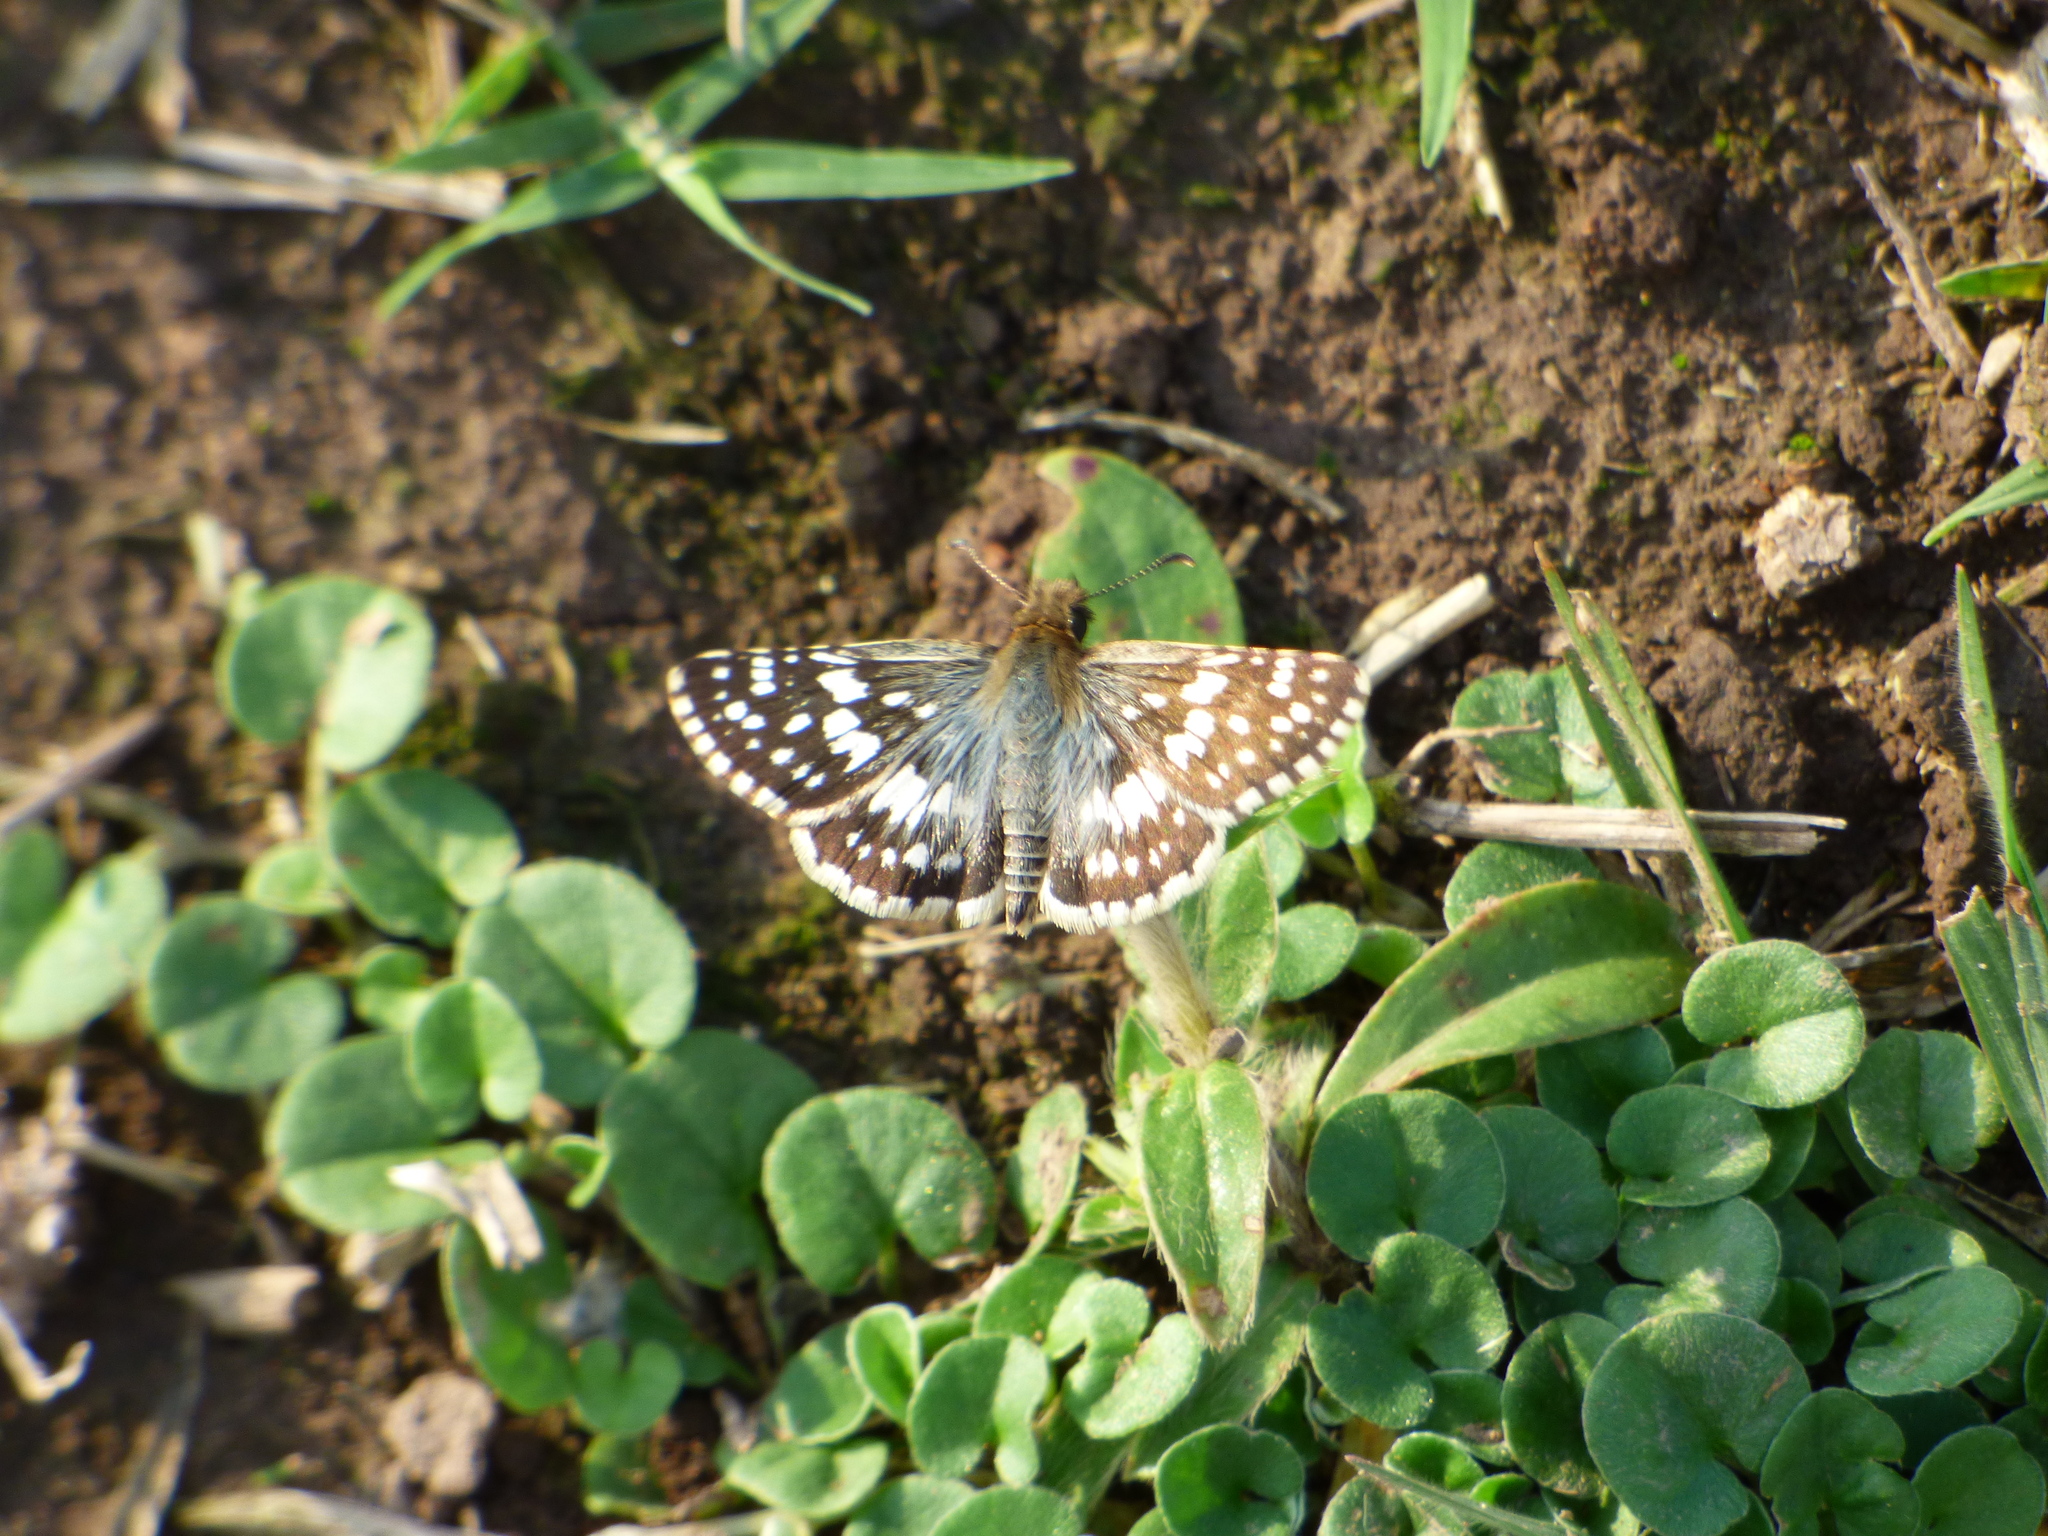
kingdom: Animalia
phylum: Arthropoda
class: Insecta
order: Lepidoptera
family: Hesperiidae
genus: Burnsius
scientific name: Burnsius orcynoides
